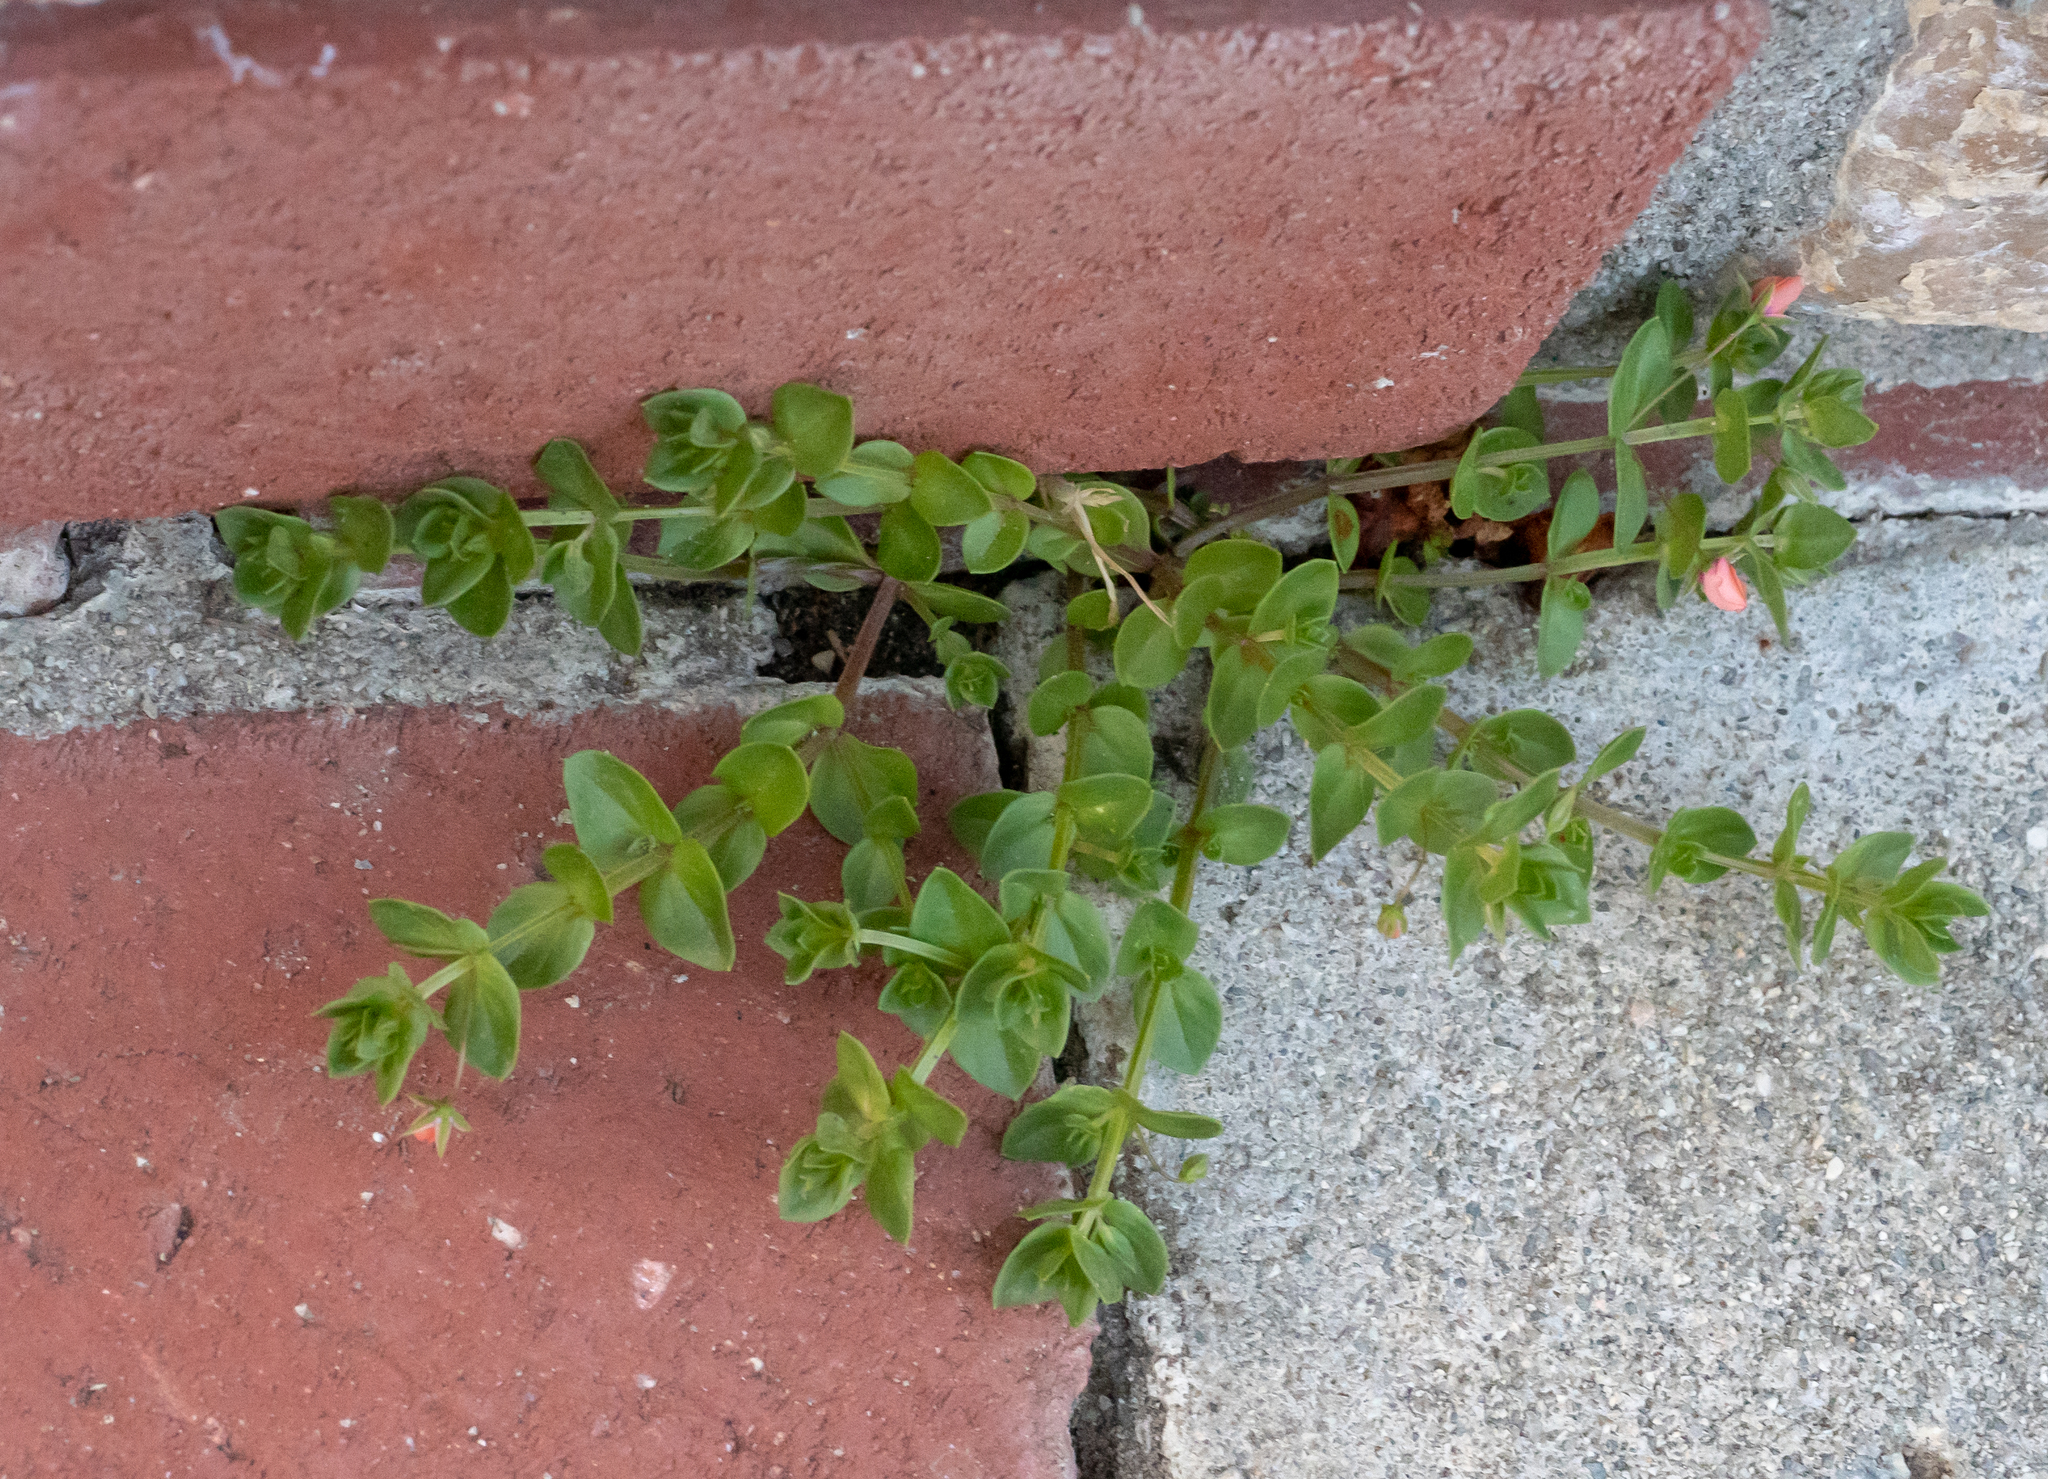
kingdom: Plantae
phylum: Tracheophyta
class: Magnoliopsida
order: Ericales
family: Primulaceae
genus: Lysimachia
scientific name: Lysimachia arvensis
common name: Scarlet pimpernel
